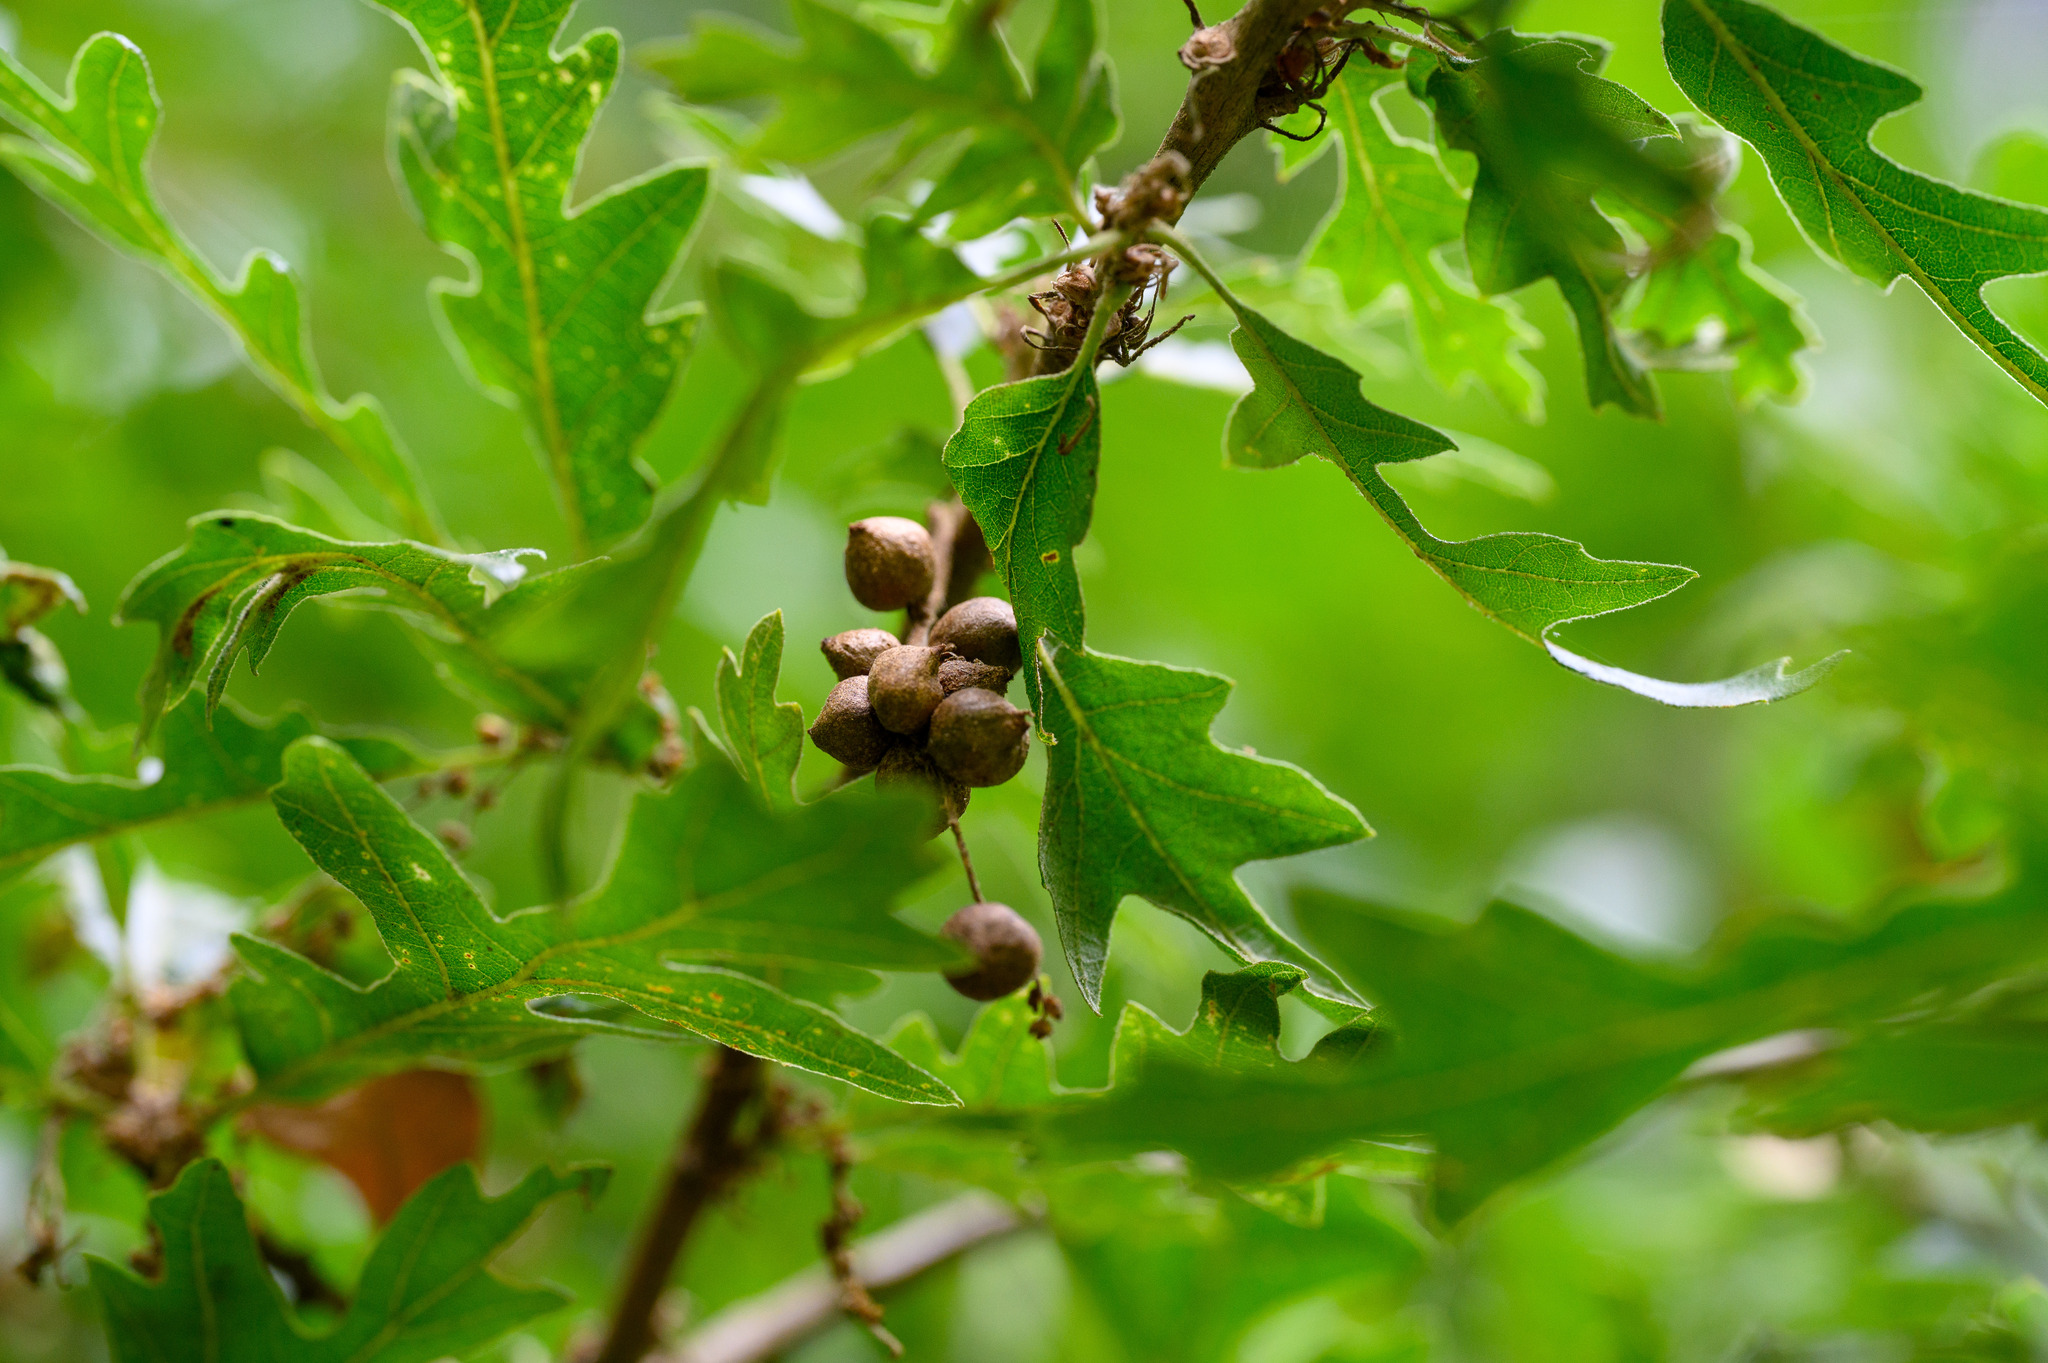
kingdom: Animalia
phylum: Arthropoda
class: Insecta
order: Hymenoptera
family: Cynipidae
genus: Andricus
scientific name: Andricus grossulariae
